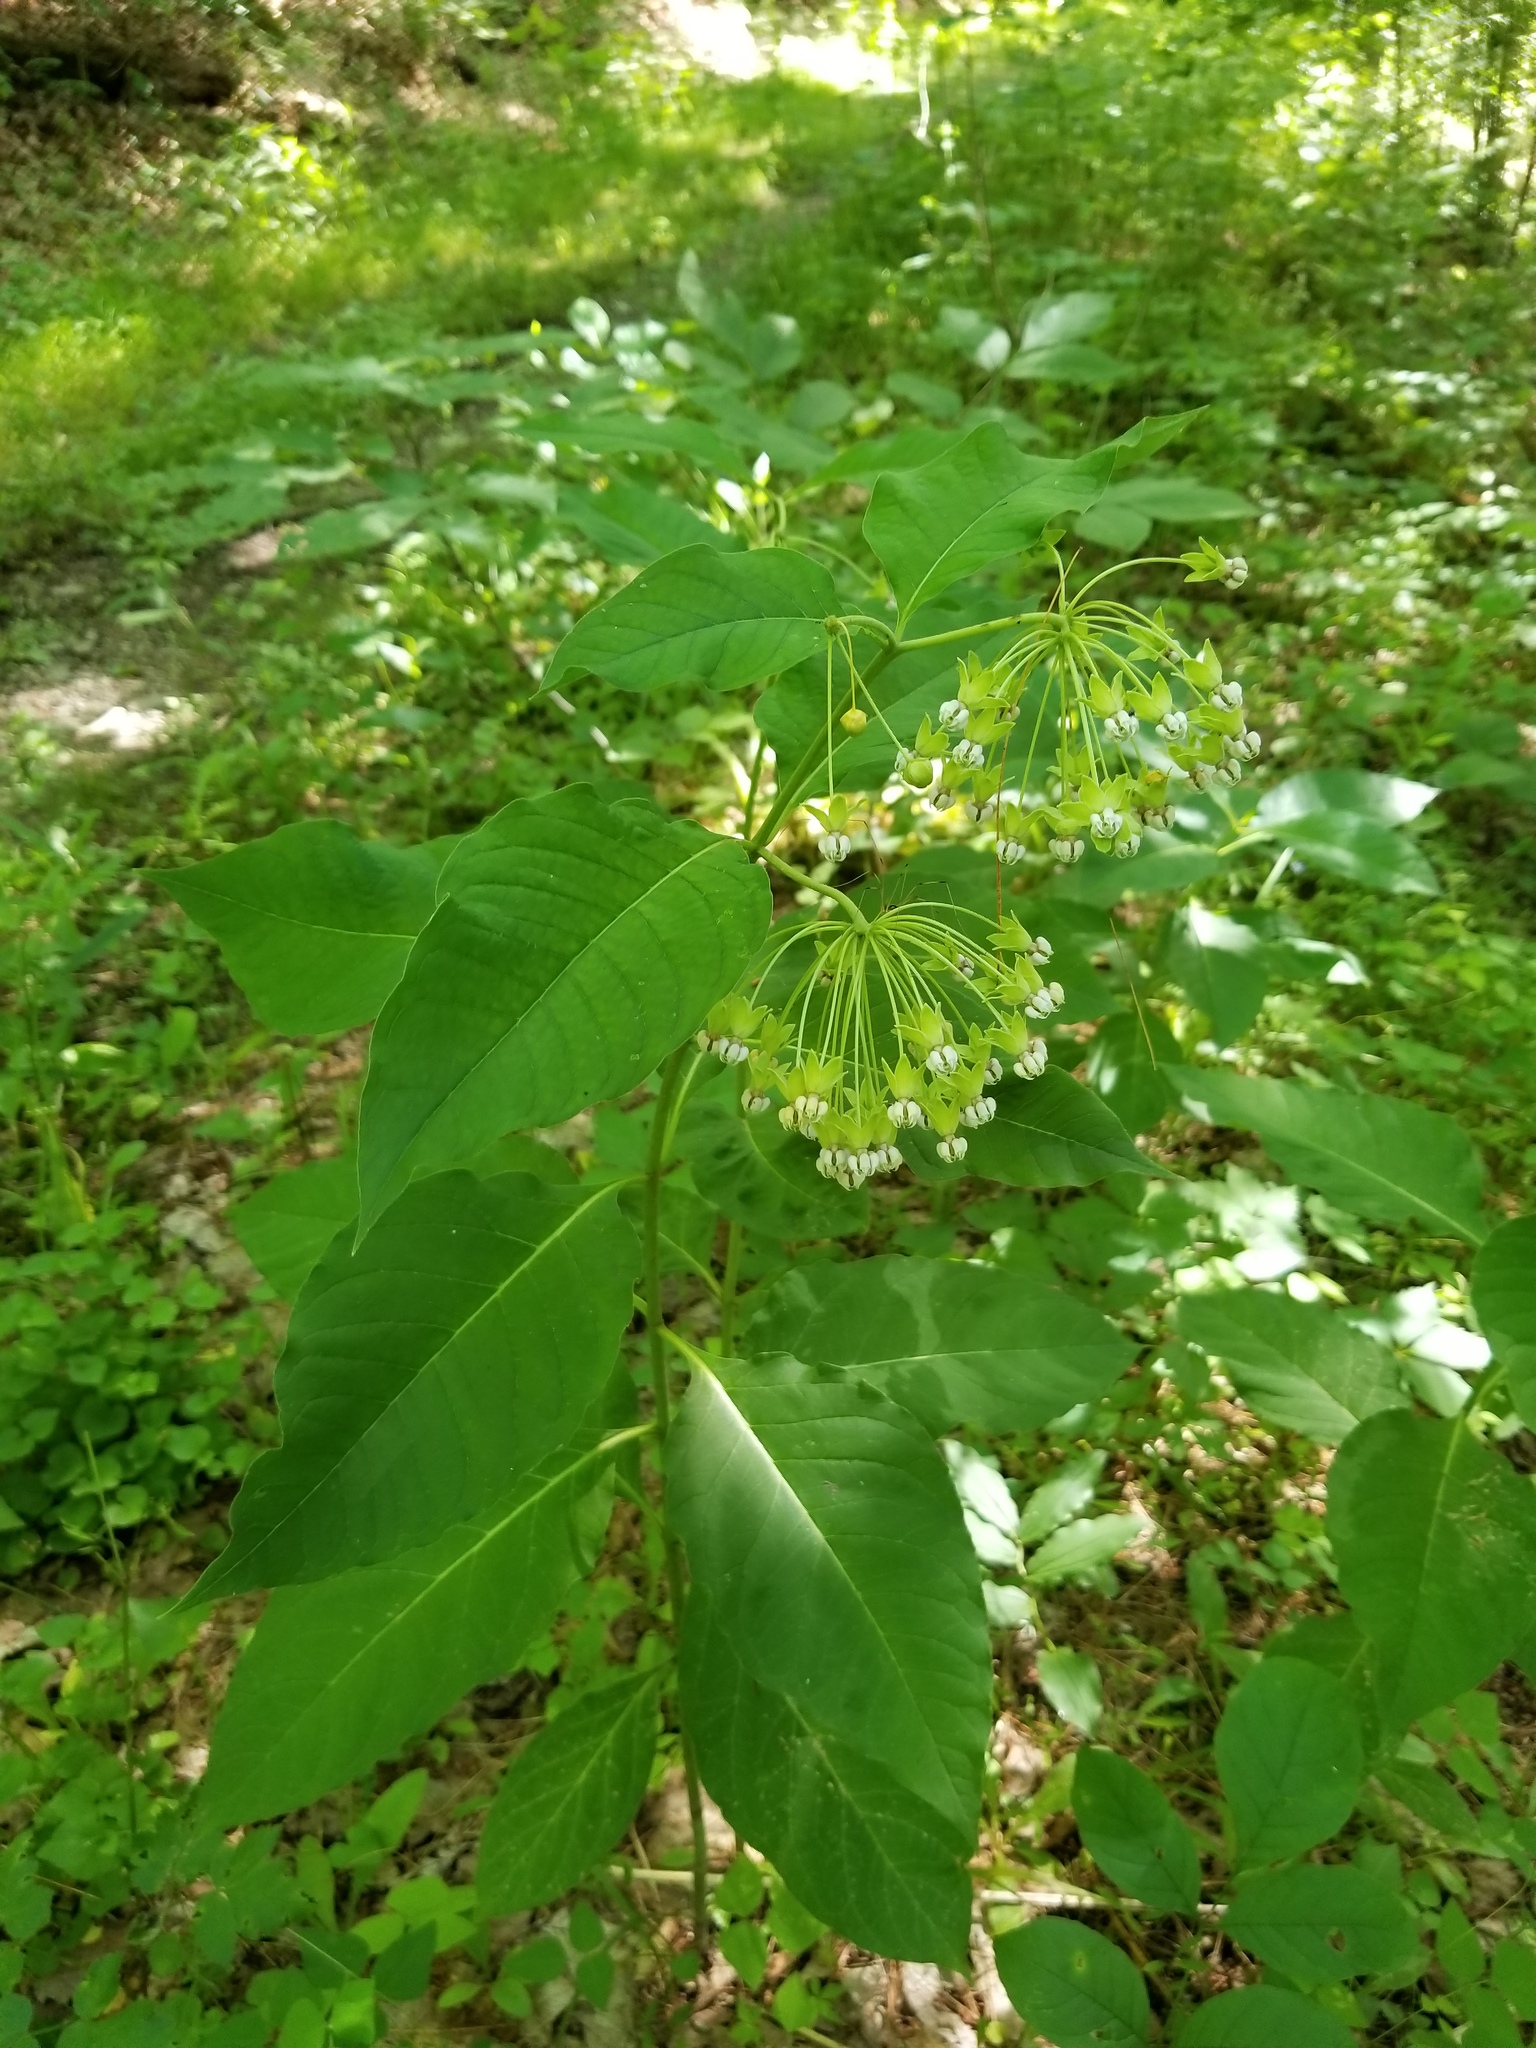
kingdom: Plantae
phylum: Tracheophyta
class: Magnoliopsida
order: Gentianales
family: Apocynaceae
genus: Asclepias
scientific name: Asclepias exaltata
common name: Poke milkweed
